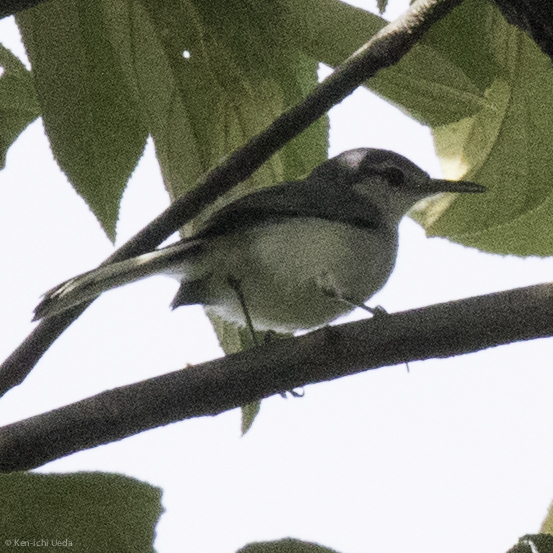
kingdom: Animalia
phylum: Chordata
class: Aves
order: Passeriformes
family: Polioptilidae
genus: Polioptila
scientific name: Polioptila plumbea
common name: Tropical gnatcatcher
